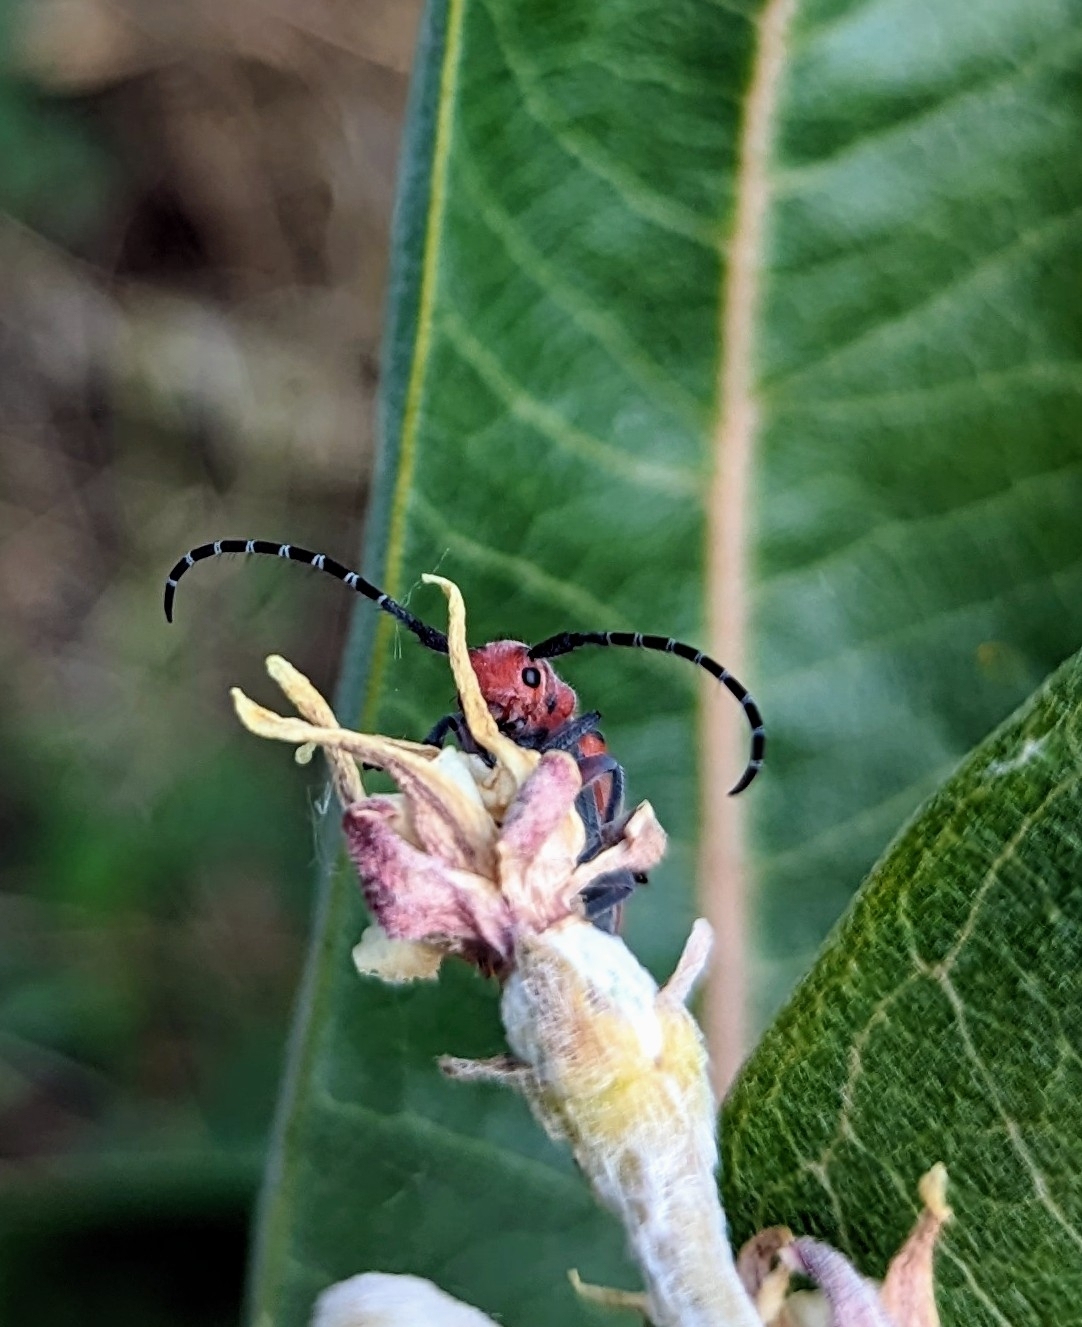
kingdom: Animalia
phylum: Arthropoda
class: Insecta
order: Coleoptera
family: Cerambycidae
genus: Tetraopes
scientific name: Tetraopes femoratus
